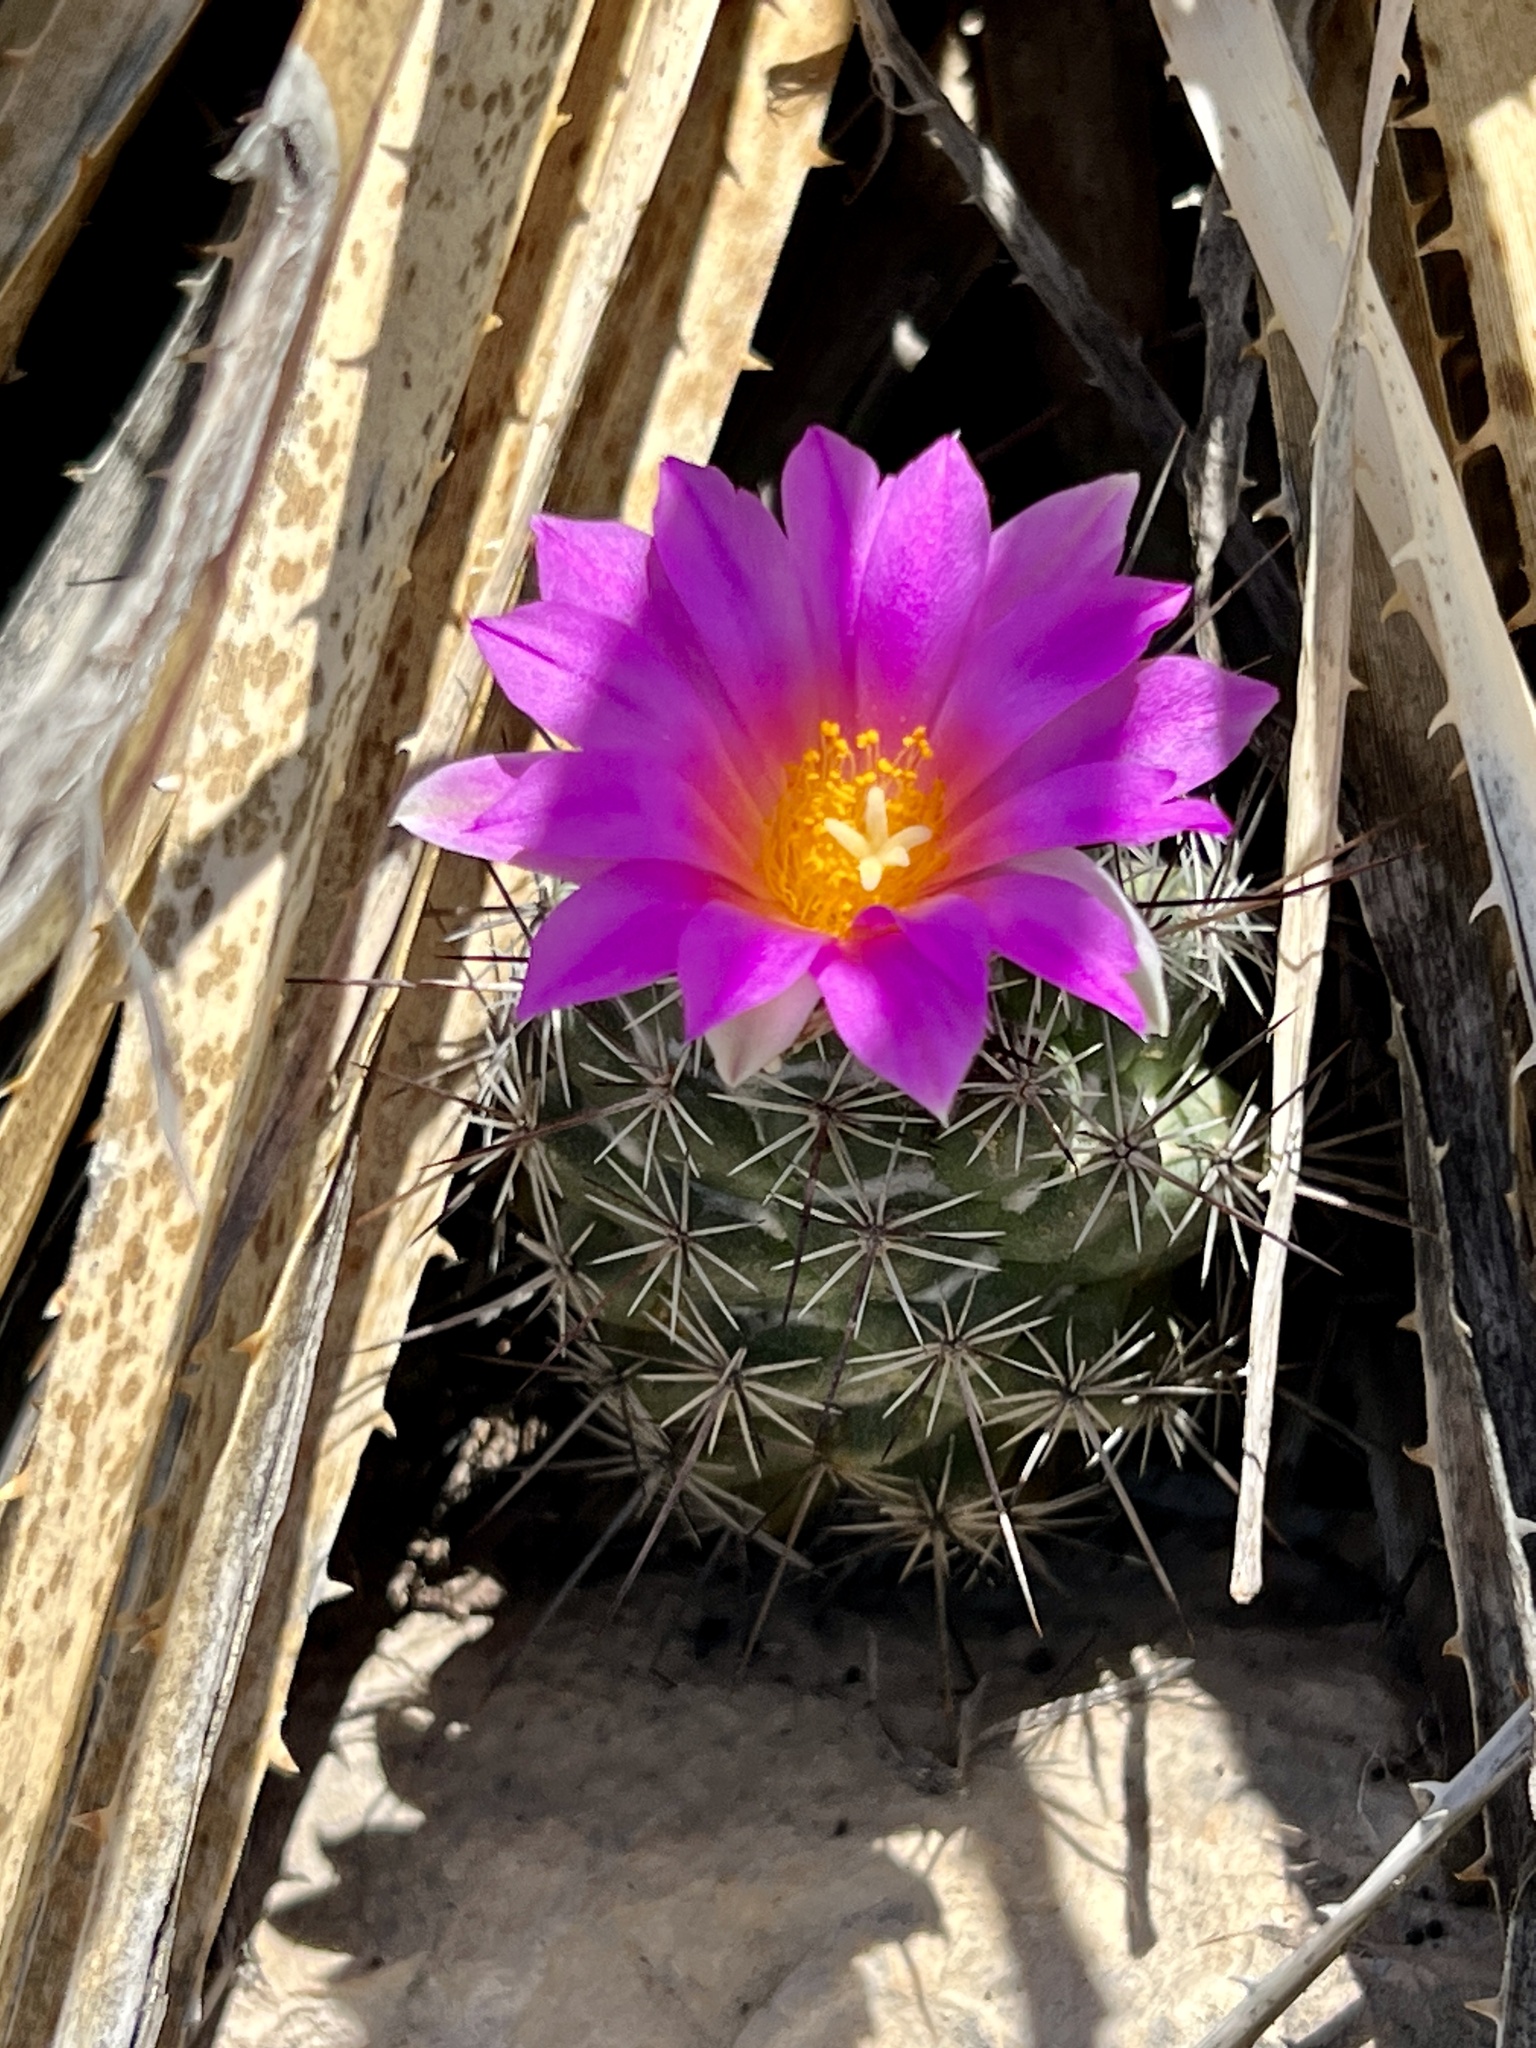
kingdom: Plantae
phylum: Tracheophyta
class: Magnoliopsida
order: Caryophyllales
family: Cactaceae
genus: Cochemiea
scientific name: Cochemiea conoidea
